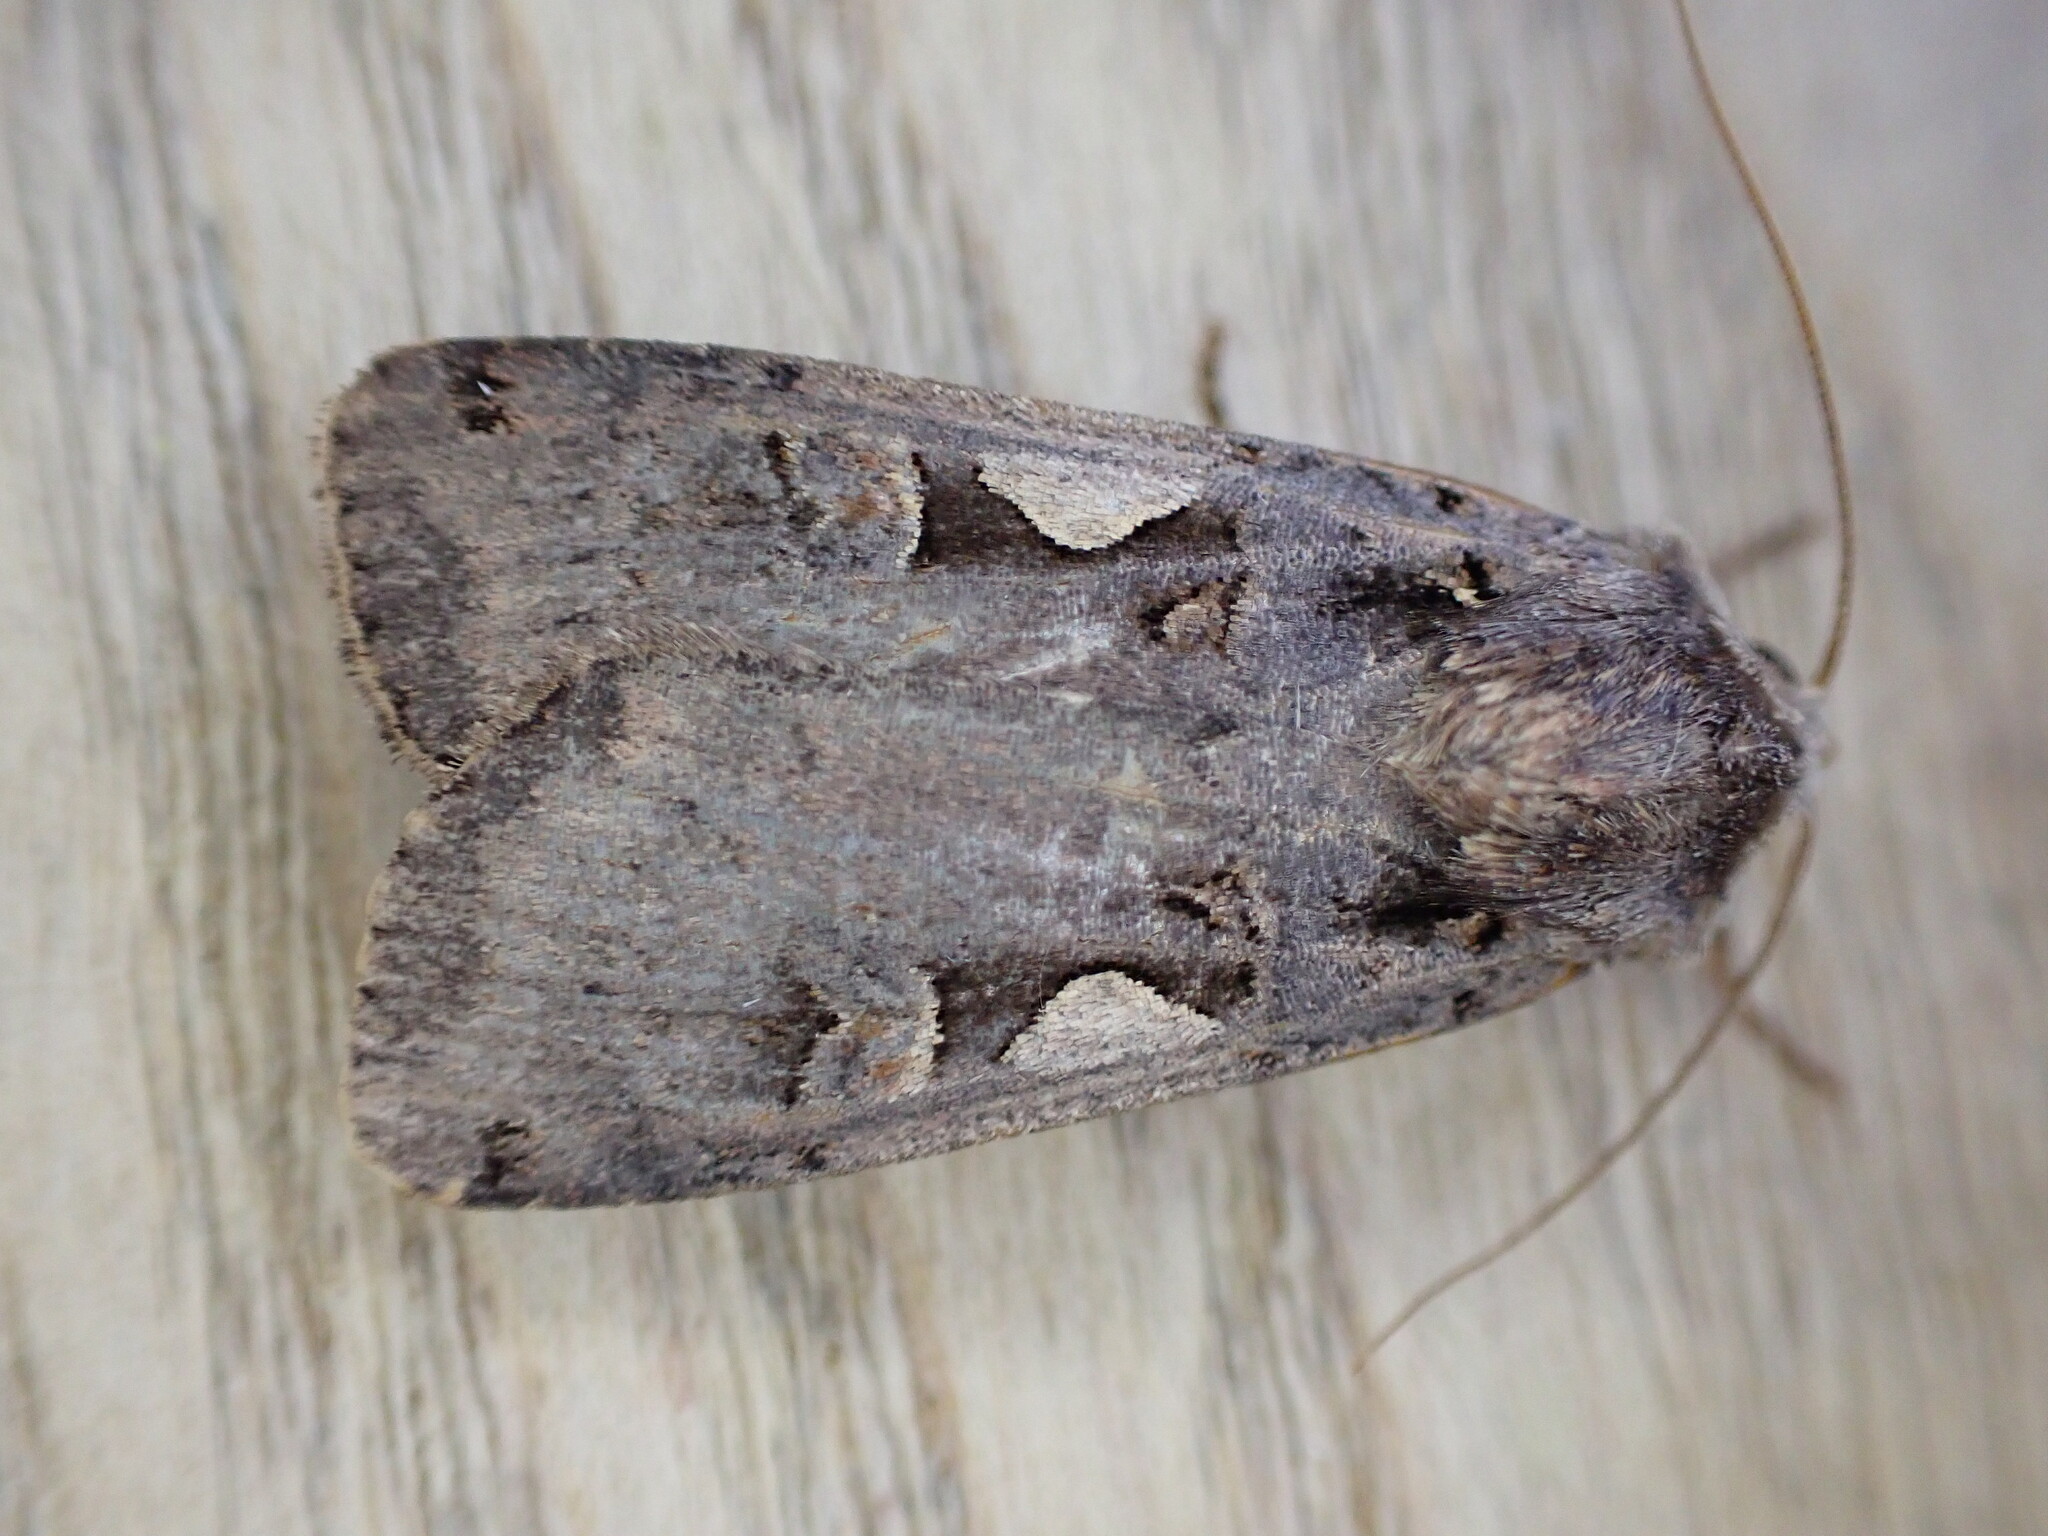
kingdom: Animalia
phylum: Arthropoda
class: Insecta
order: Lepidoptera
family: Noctuidae
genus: Xestia
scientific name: Xestia c-nigrum
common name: Setaceous hebrew character
